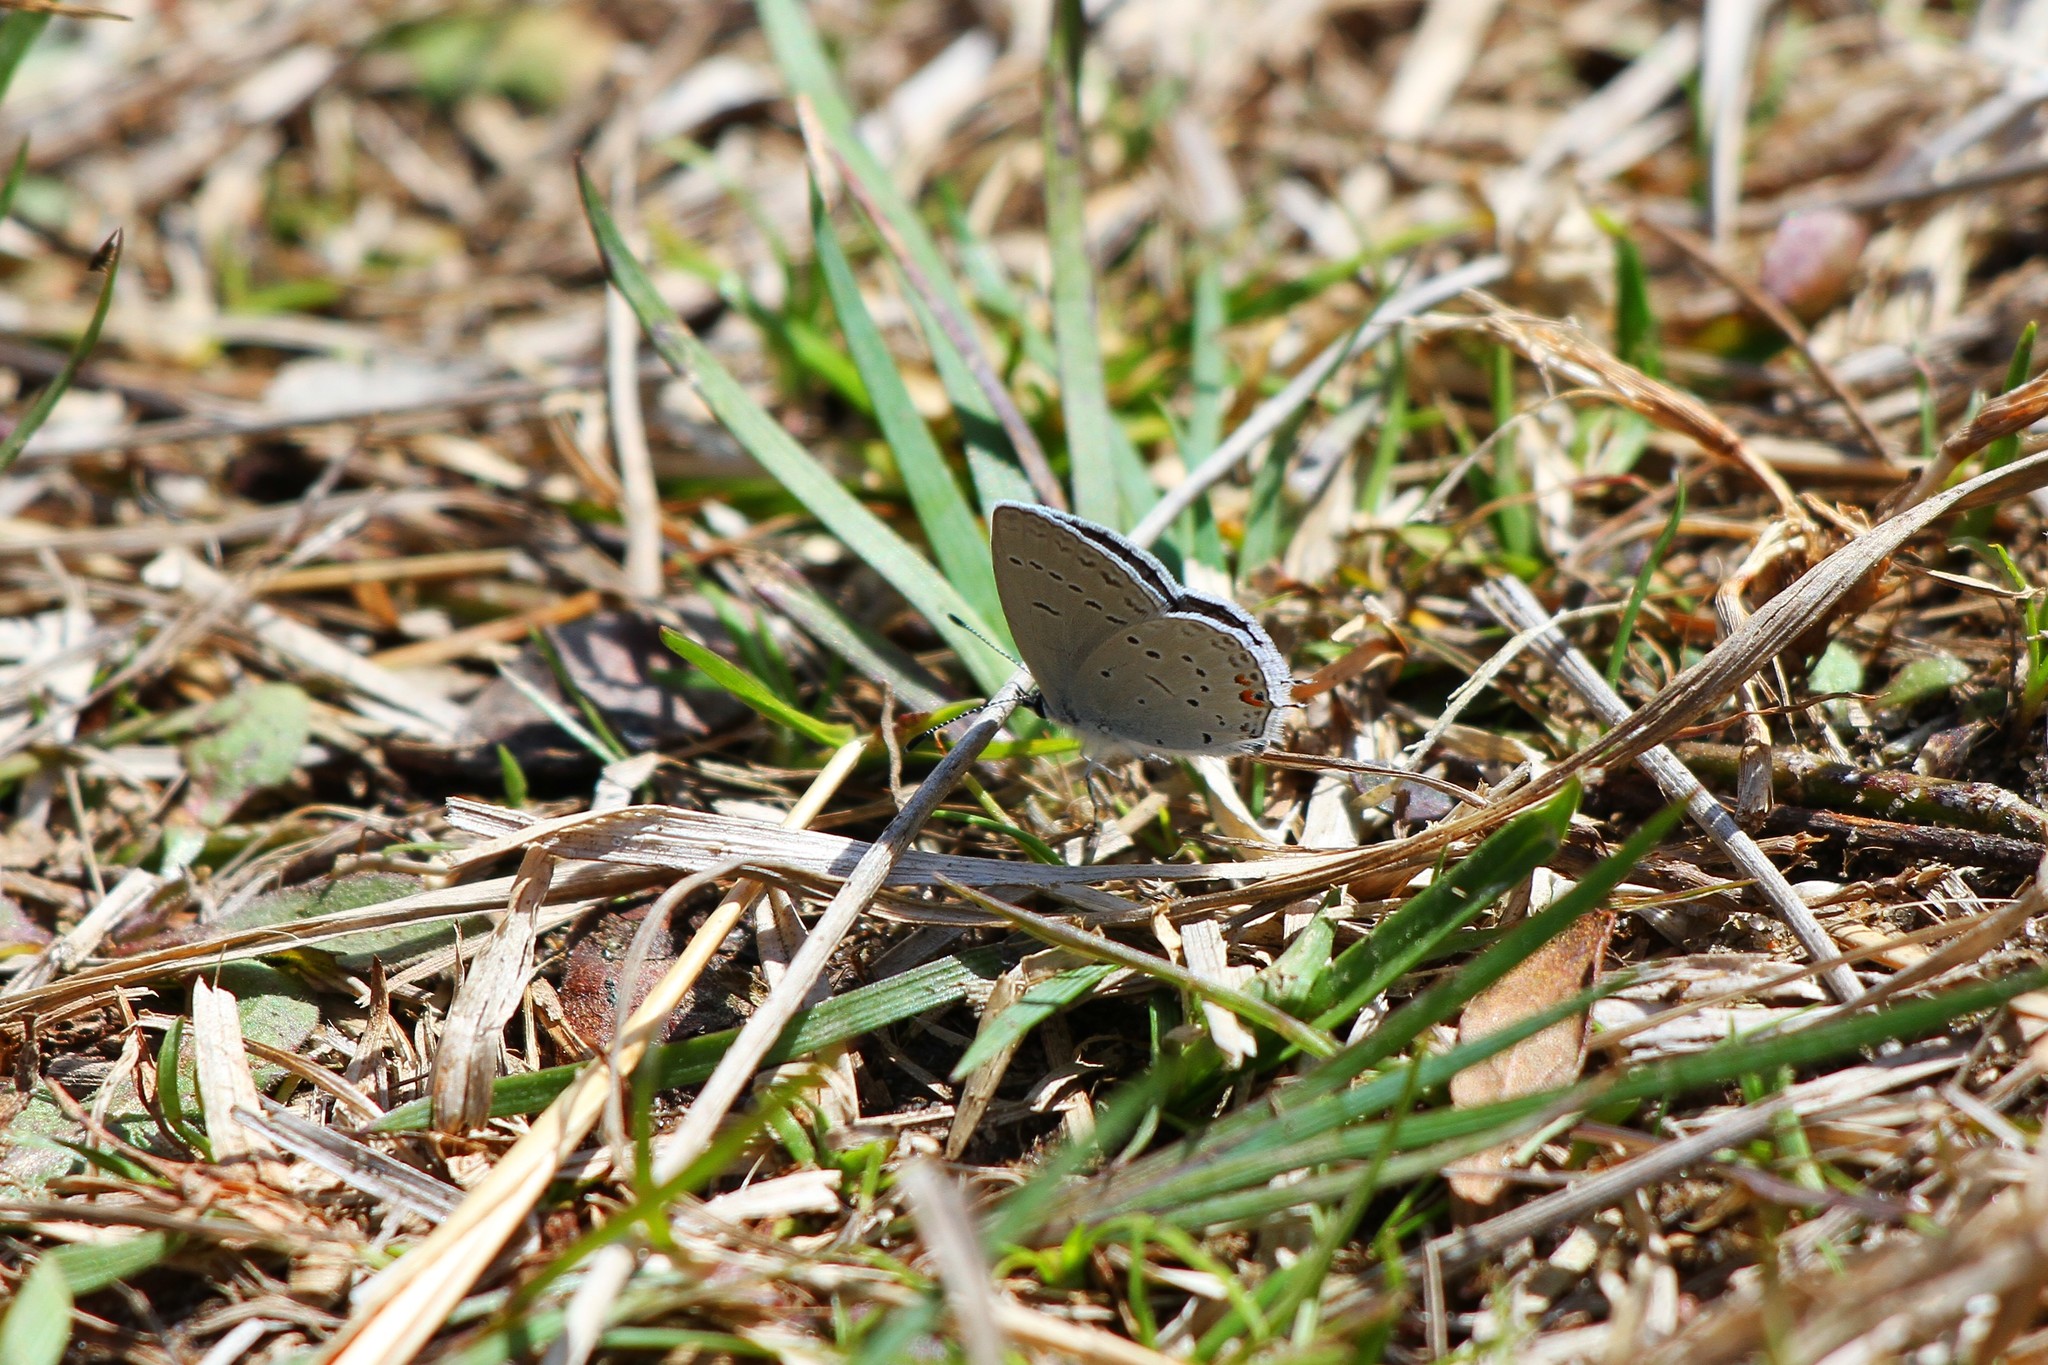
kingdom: Animalia
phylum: Arthropoda
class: Insecta
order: Lepidoptera
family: Lycaenidae
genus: Elkalyce
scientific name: Elkalyce comyntas
